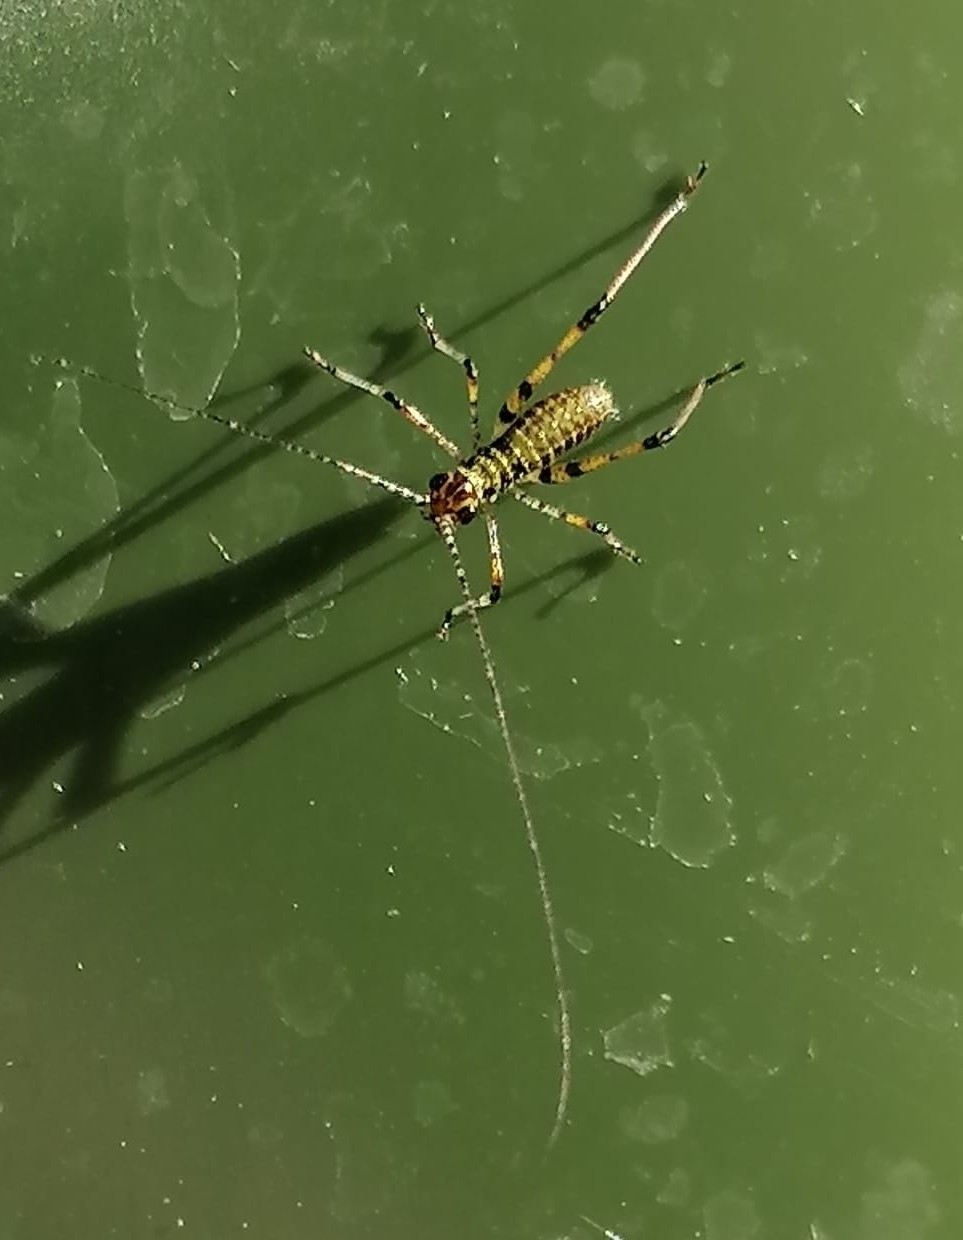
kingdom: Animalia
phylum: Arthropoda
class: Insecta
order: Orthoptera
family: Tettigoniidae
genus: Phaneroptera
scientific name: Phaneroptera nana
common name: Southern sickle bush-cricket
